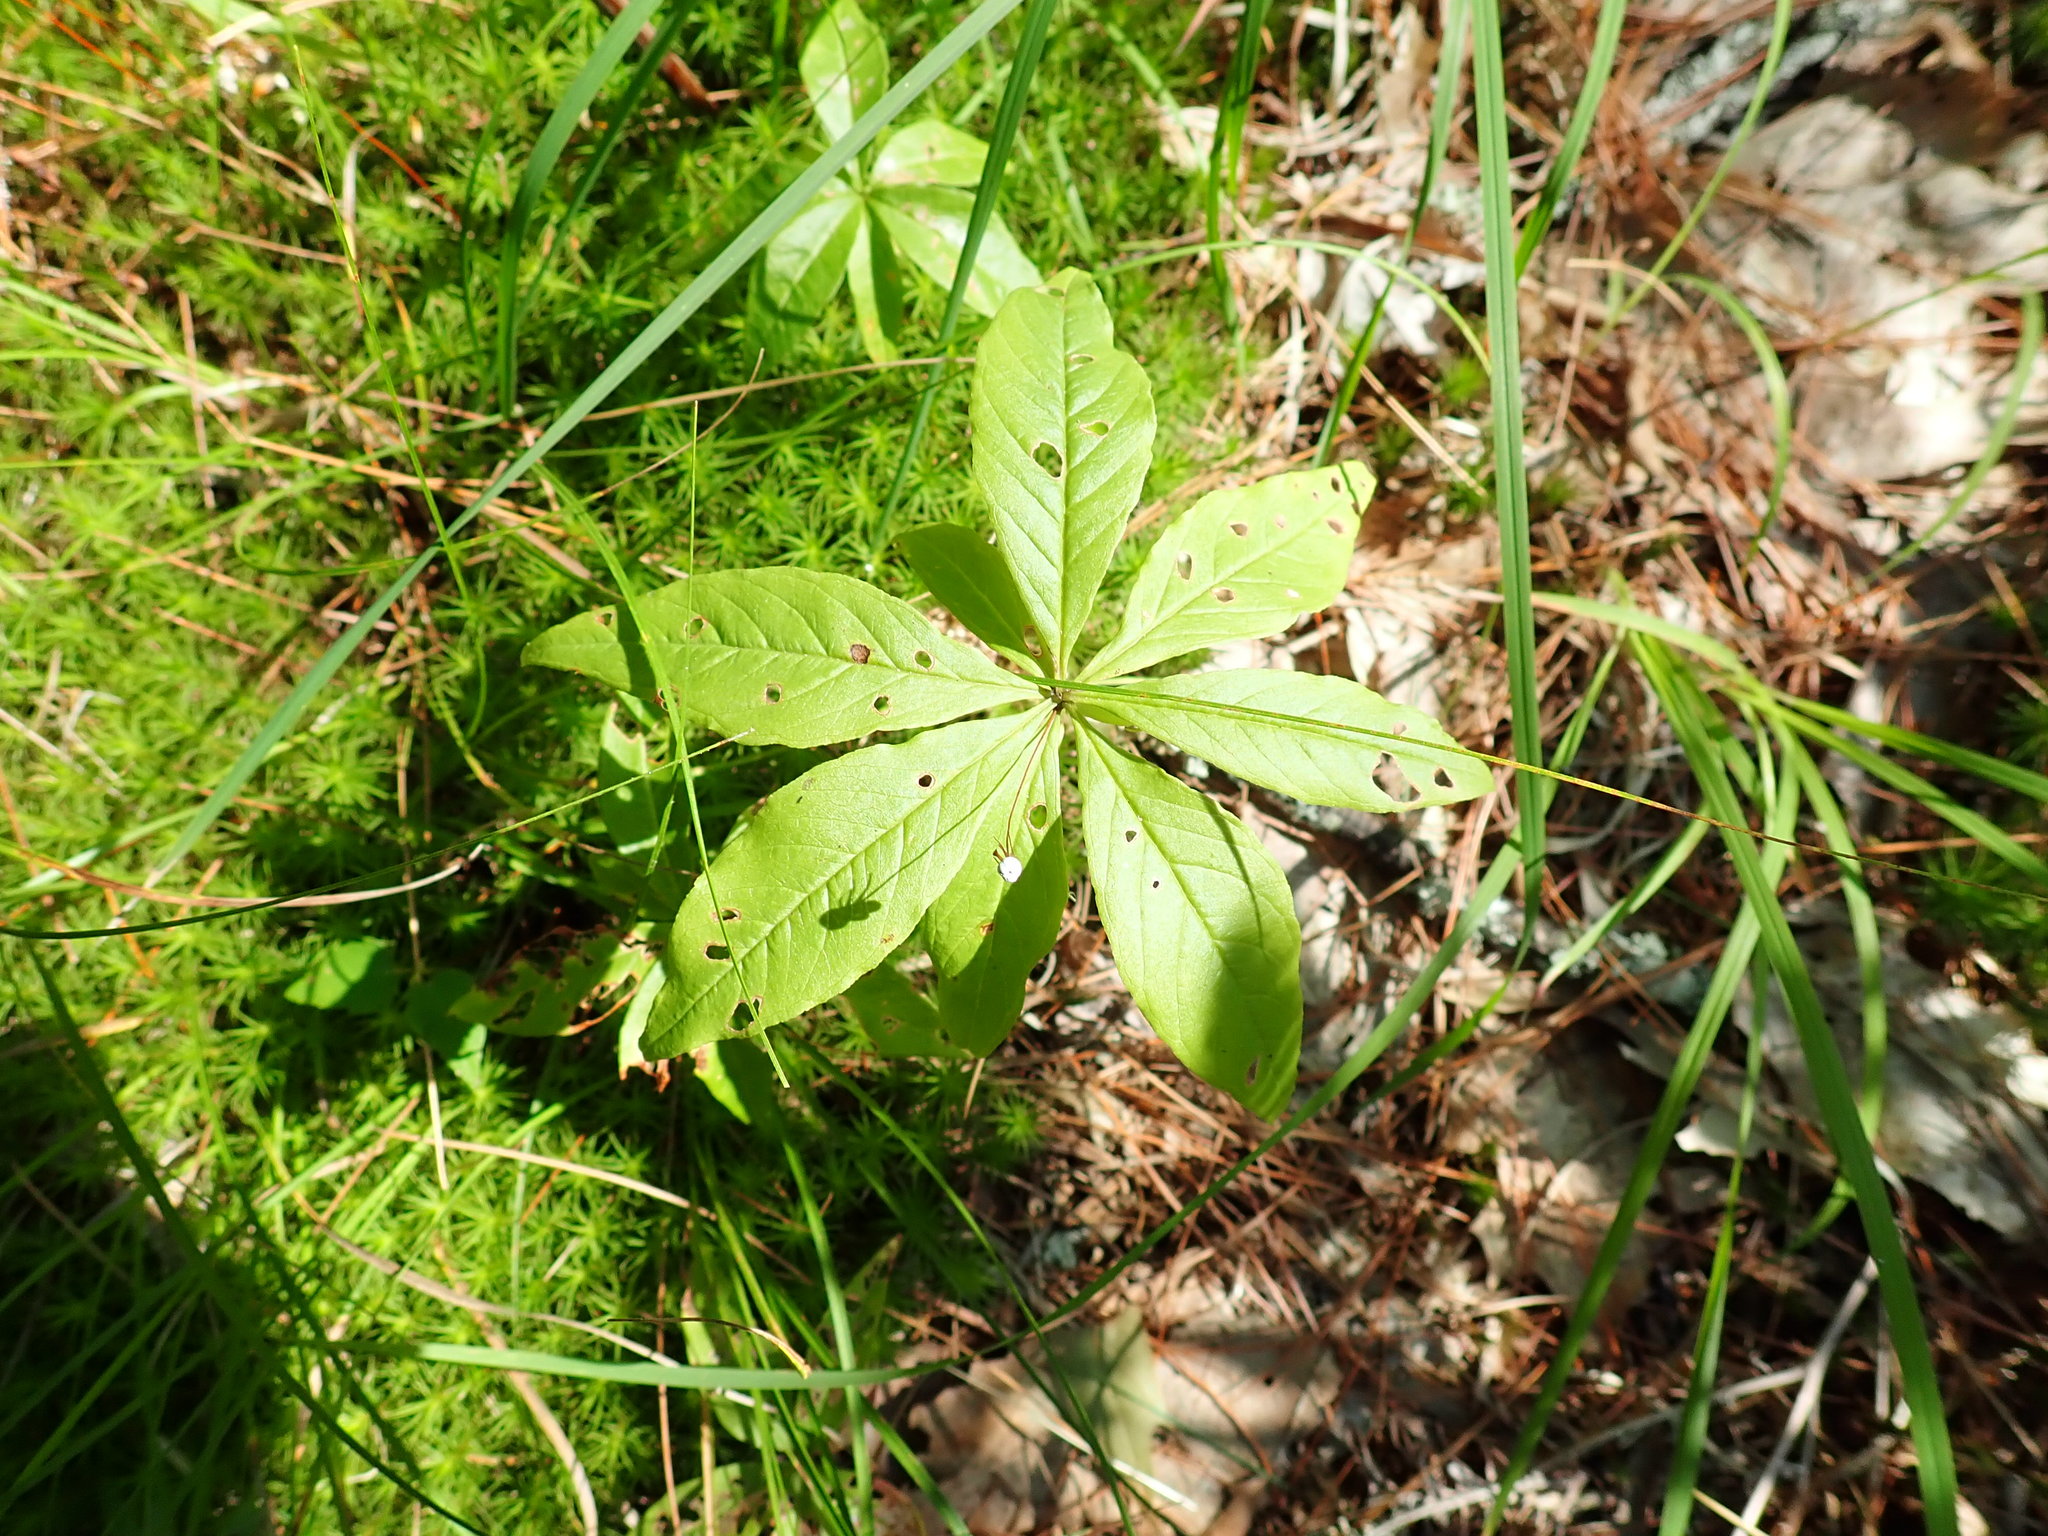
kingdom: Plantae
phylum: Tracheophyta
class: Magnoliopsida
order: Ericales
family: Primulaceae
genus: Lysimachia
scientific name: Lysimachia borealis
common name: American starflower
